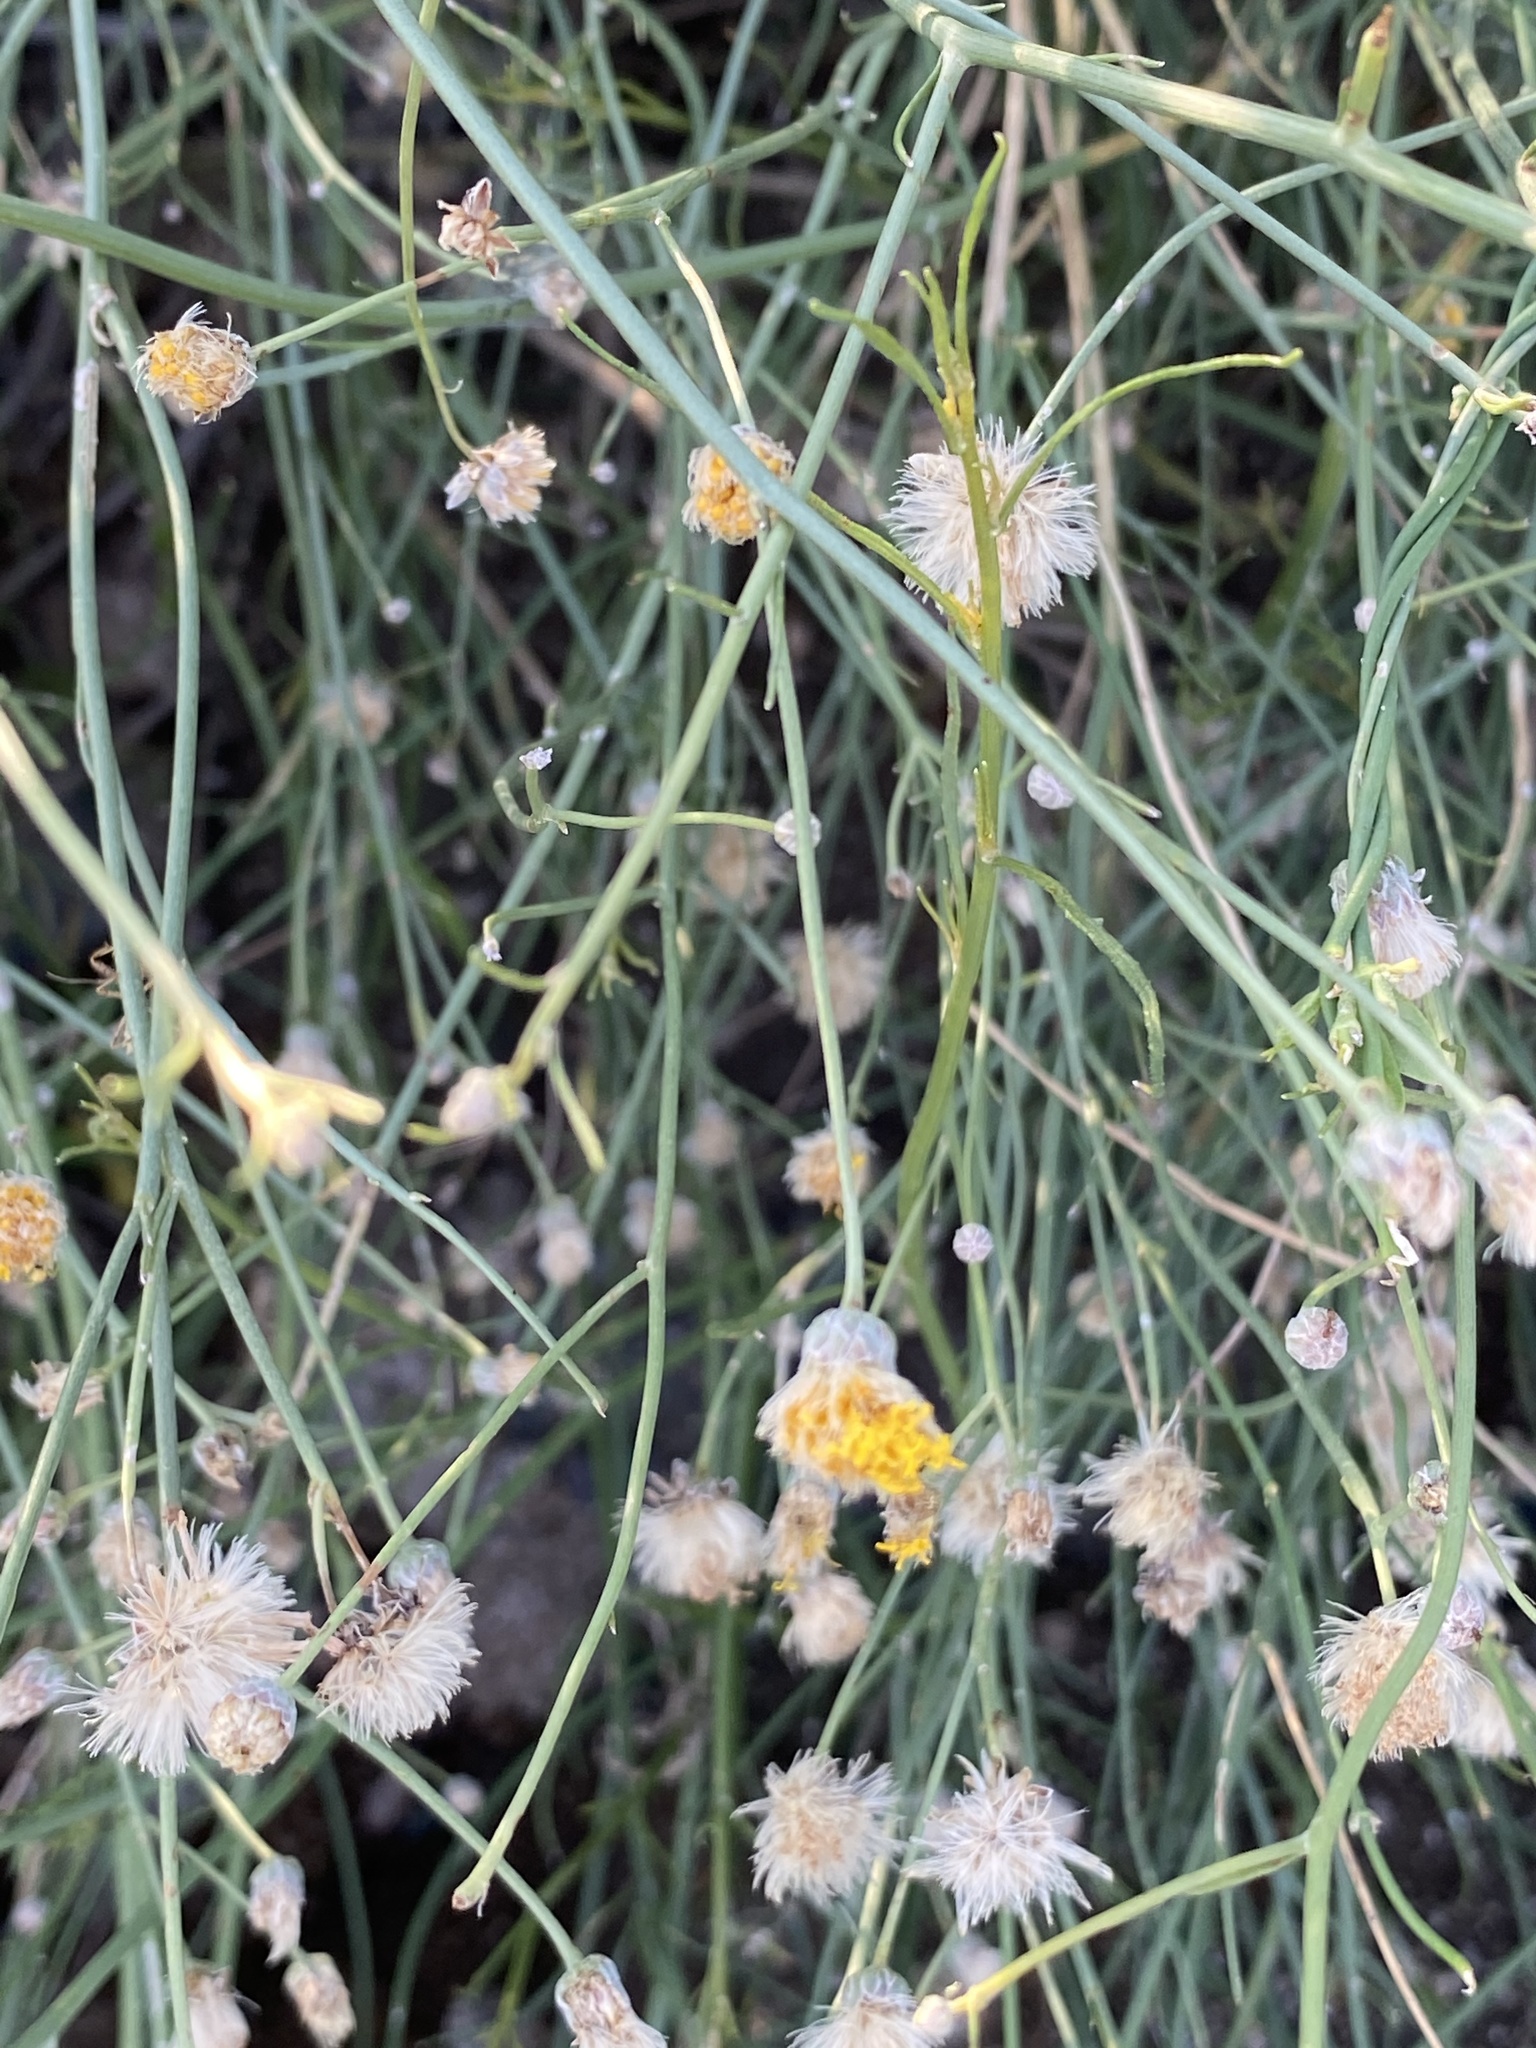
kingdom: Plantae
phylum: Tracheophyta
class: Magnoliopsida
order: Asterales
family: Asteraceae
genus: Bebbia
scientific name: Bebbia juncea
